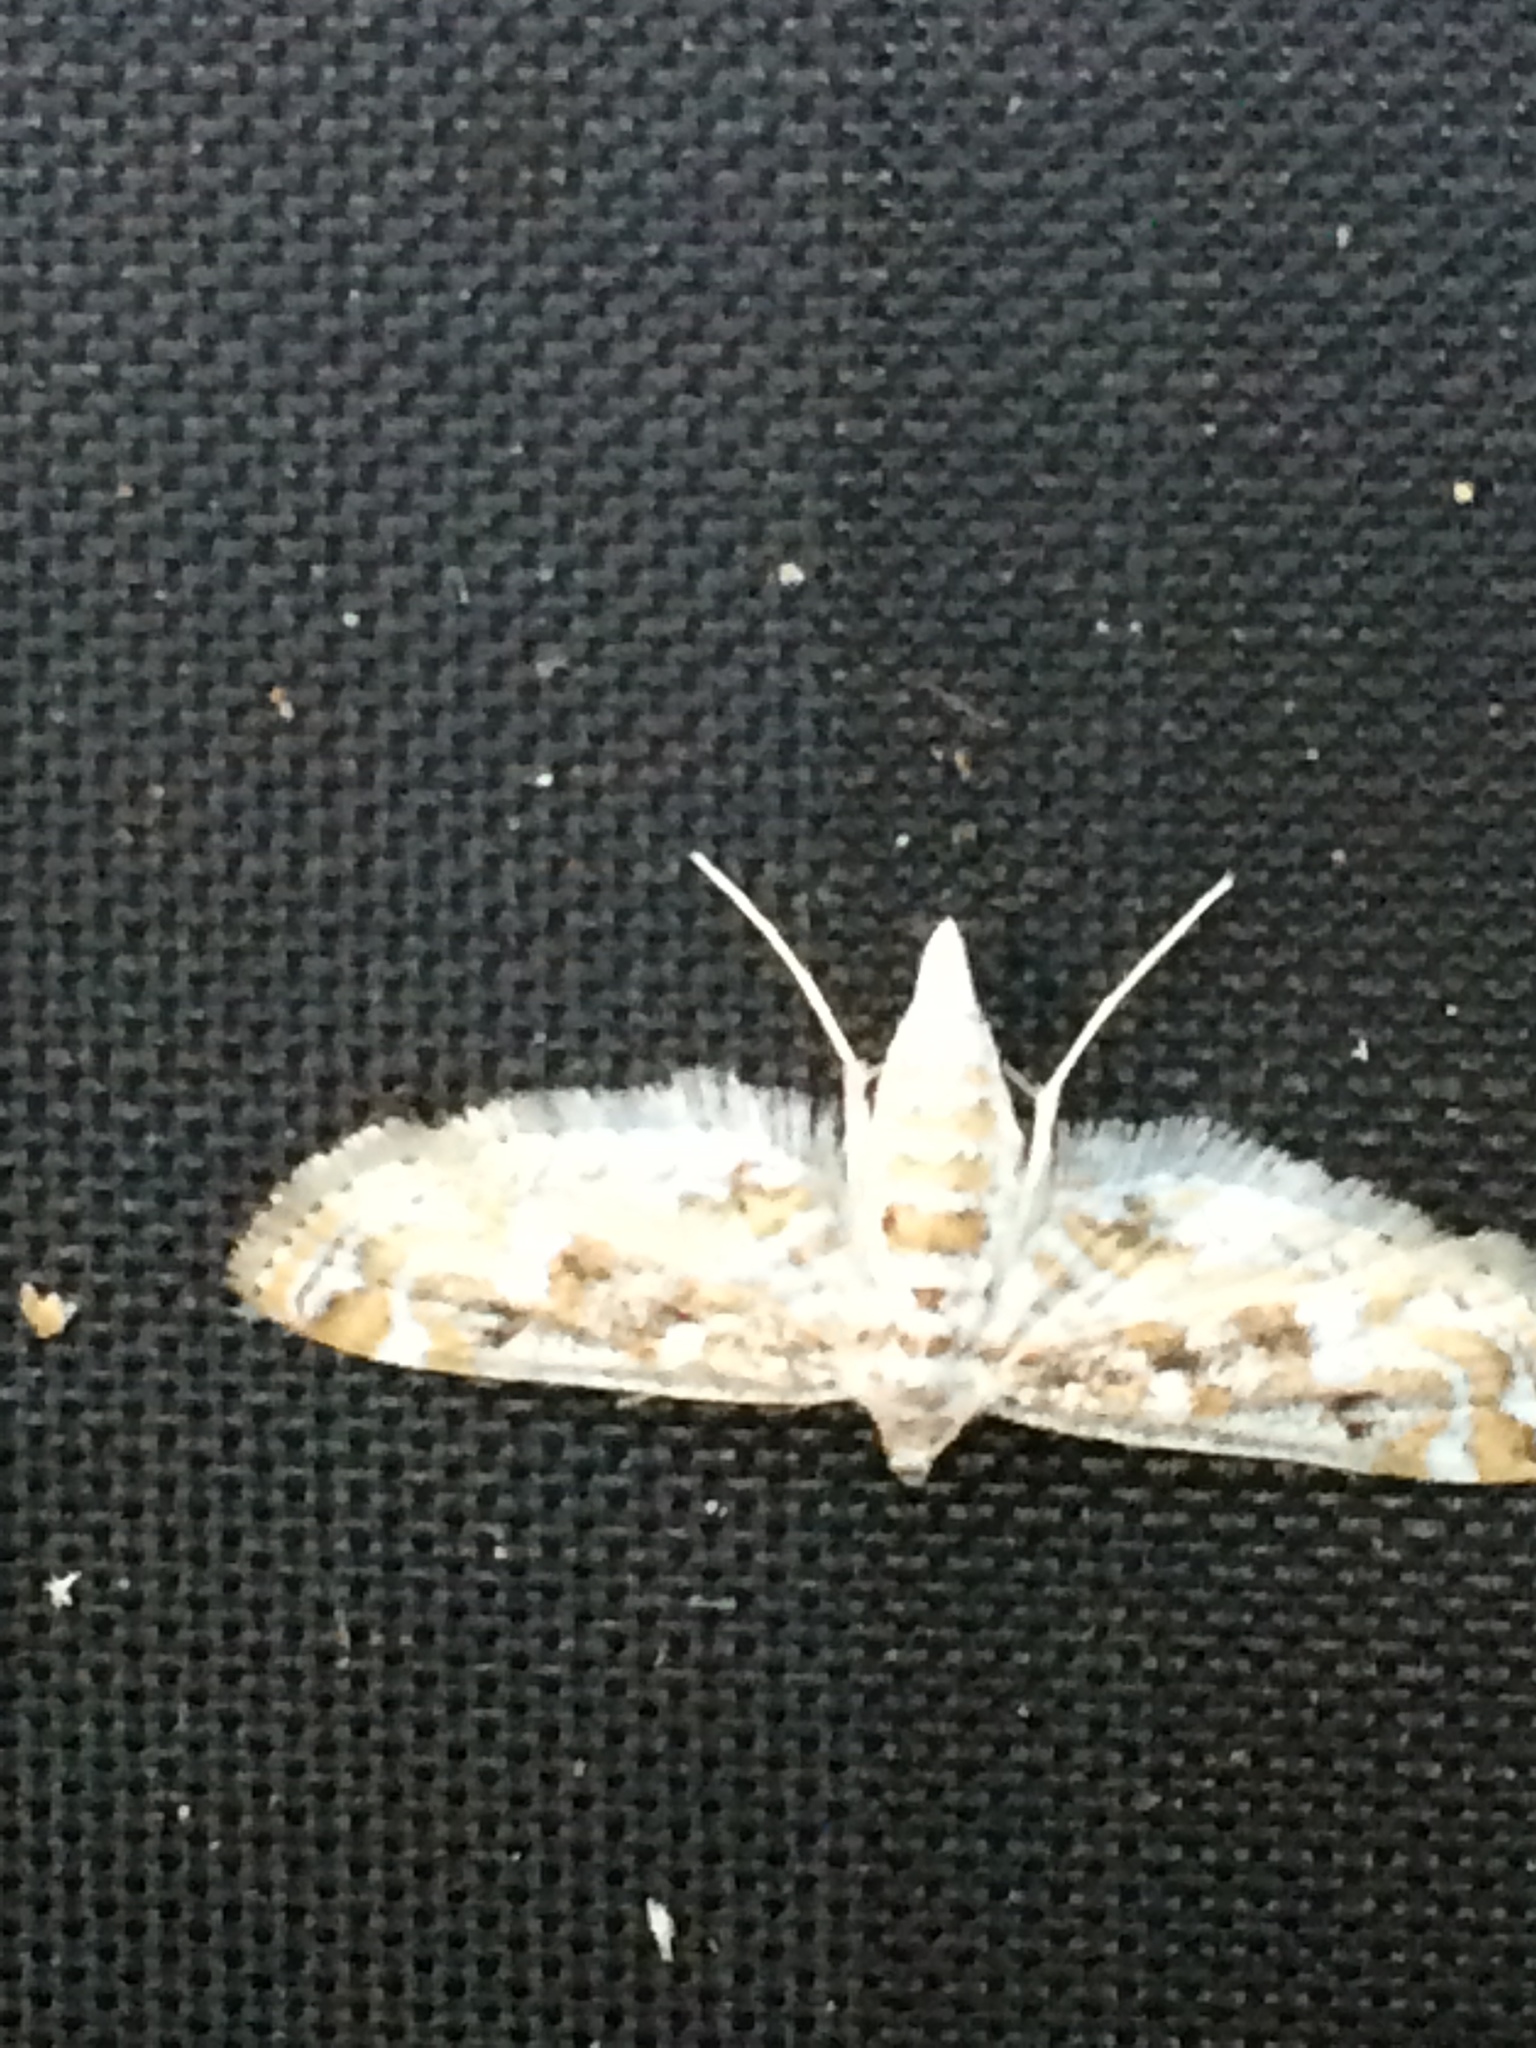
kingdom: Animalia
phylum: Arthropoda
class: Insecta
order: Lepidoptera
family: Crambidae
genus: Parapoynx
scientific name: Parapoynx diminutalis
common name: Hydrilla leafcutter
